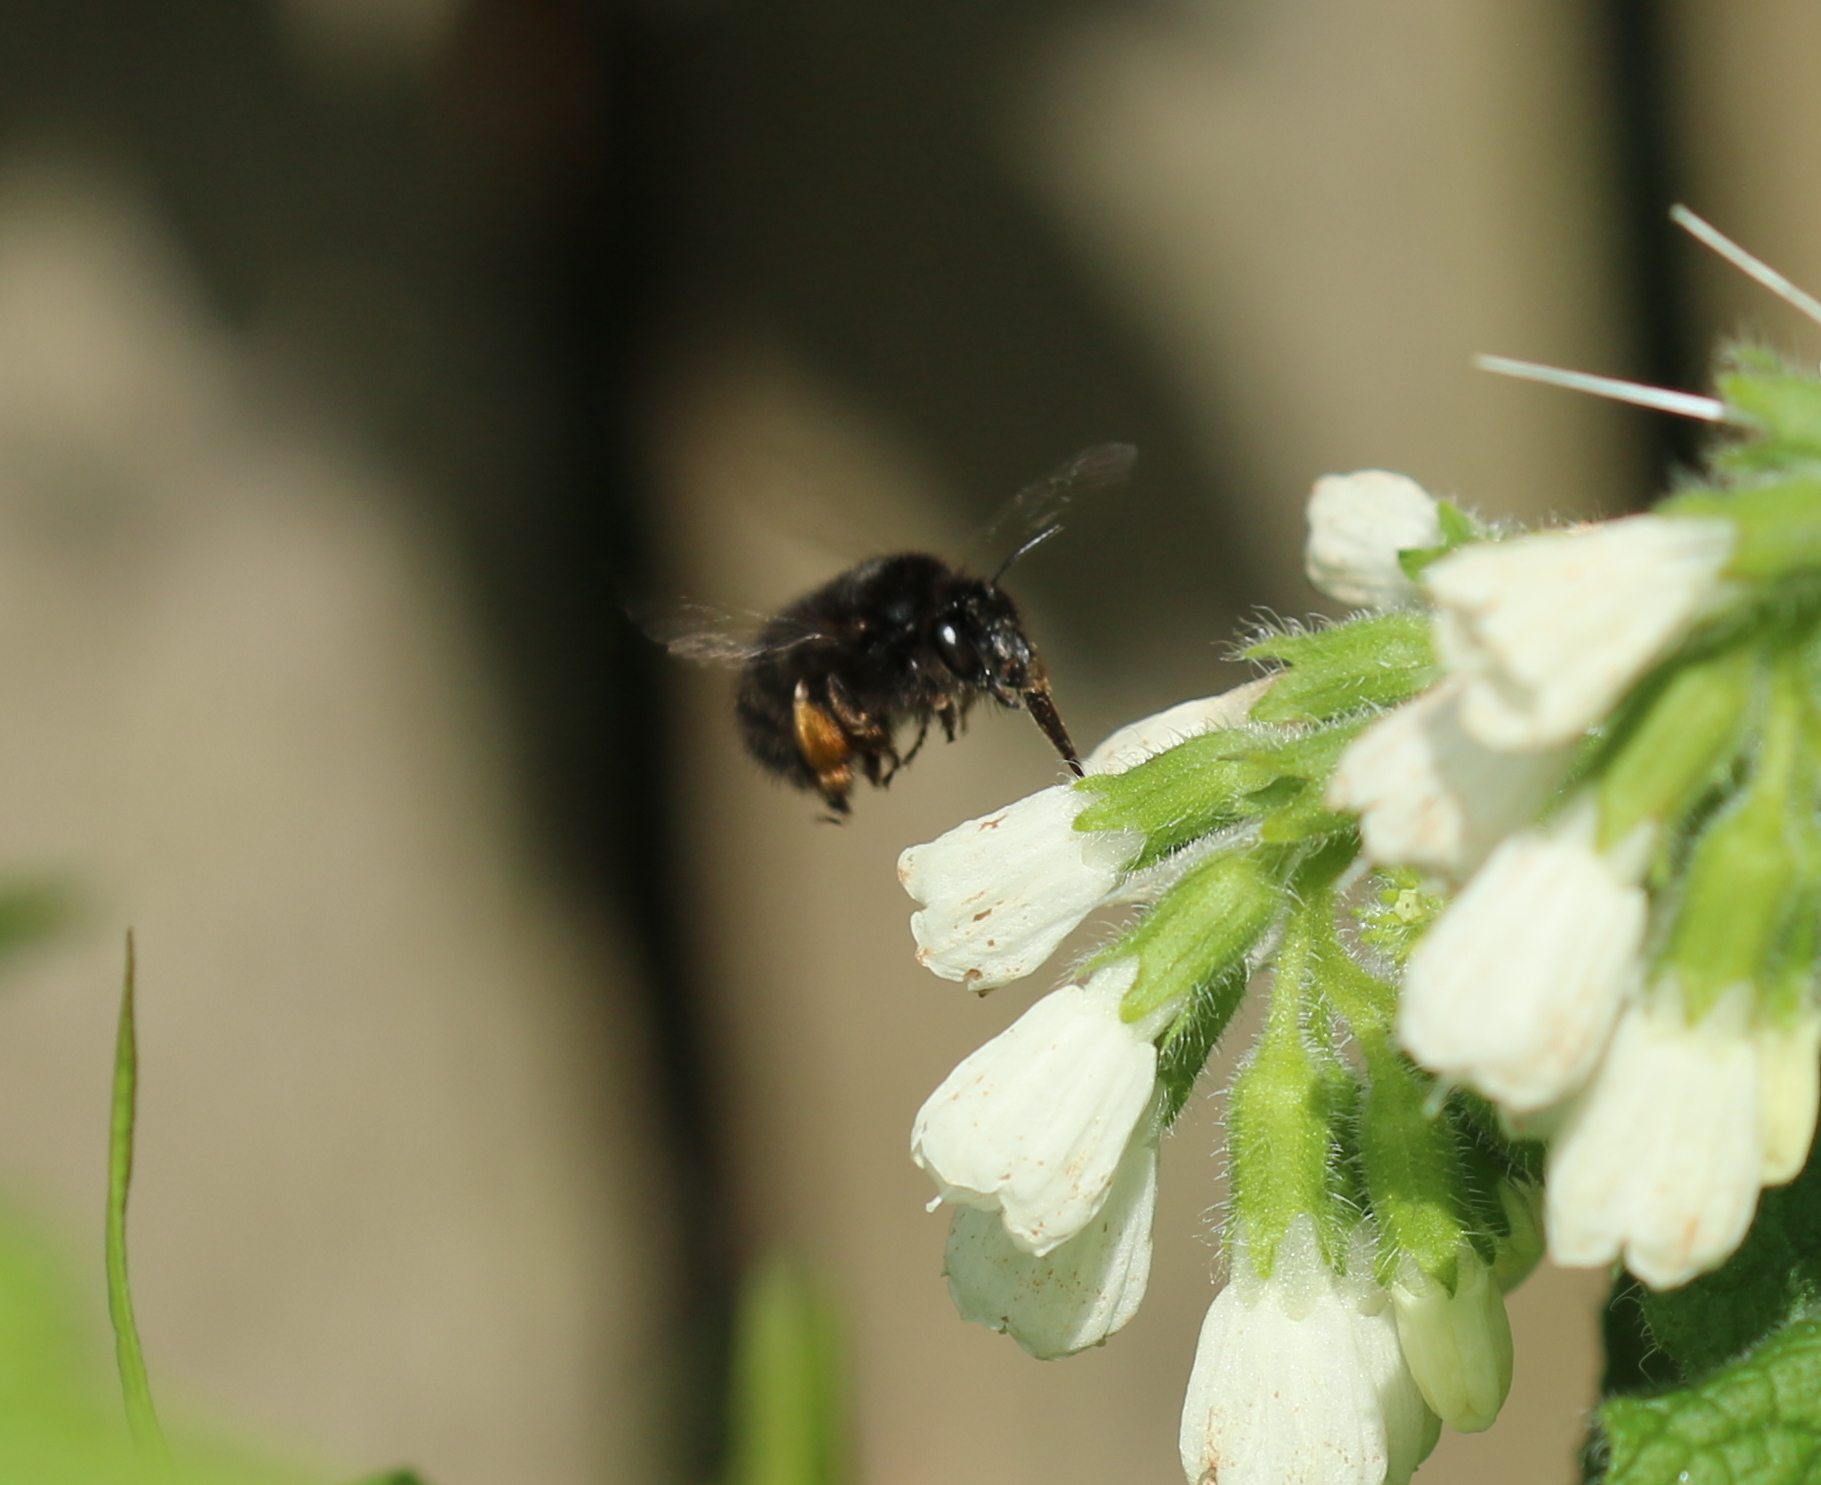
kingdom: Animalia
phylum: Arthropoda
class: Insecta
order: Hymenoptera
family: Apidae
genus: Anthophora
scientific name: Anthophora plumipes
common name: Hairy-footed flower bee
